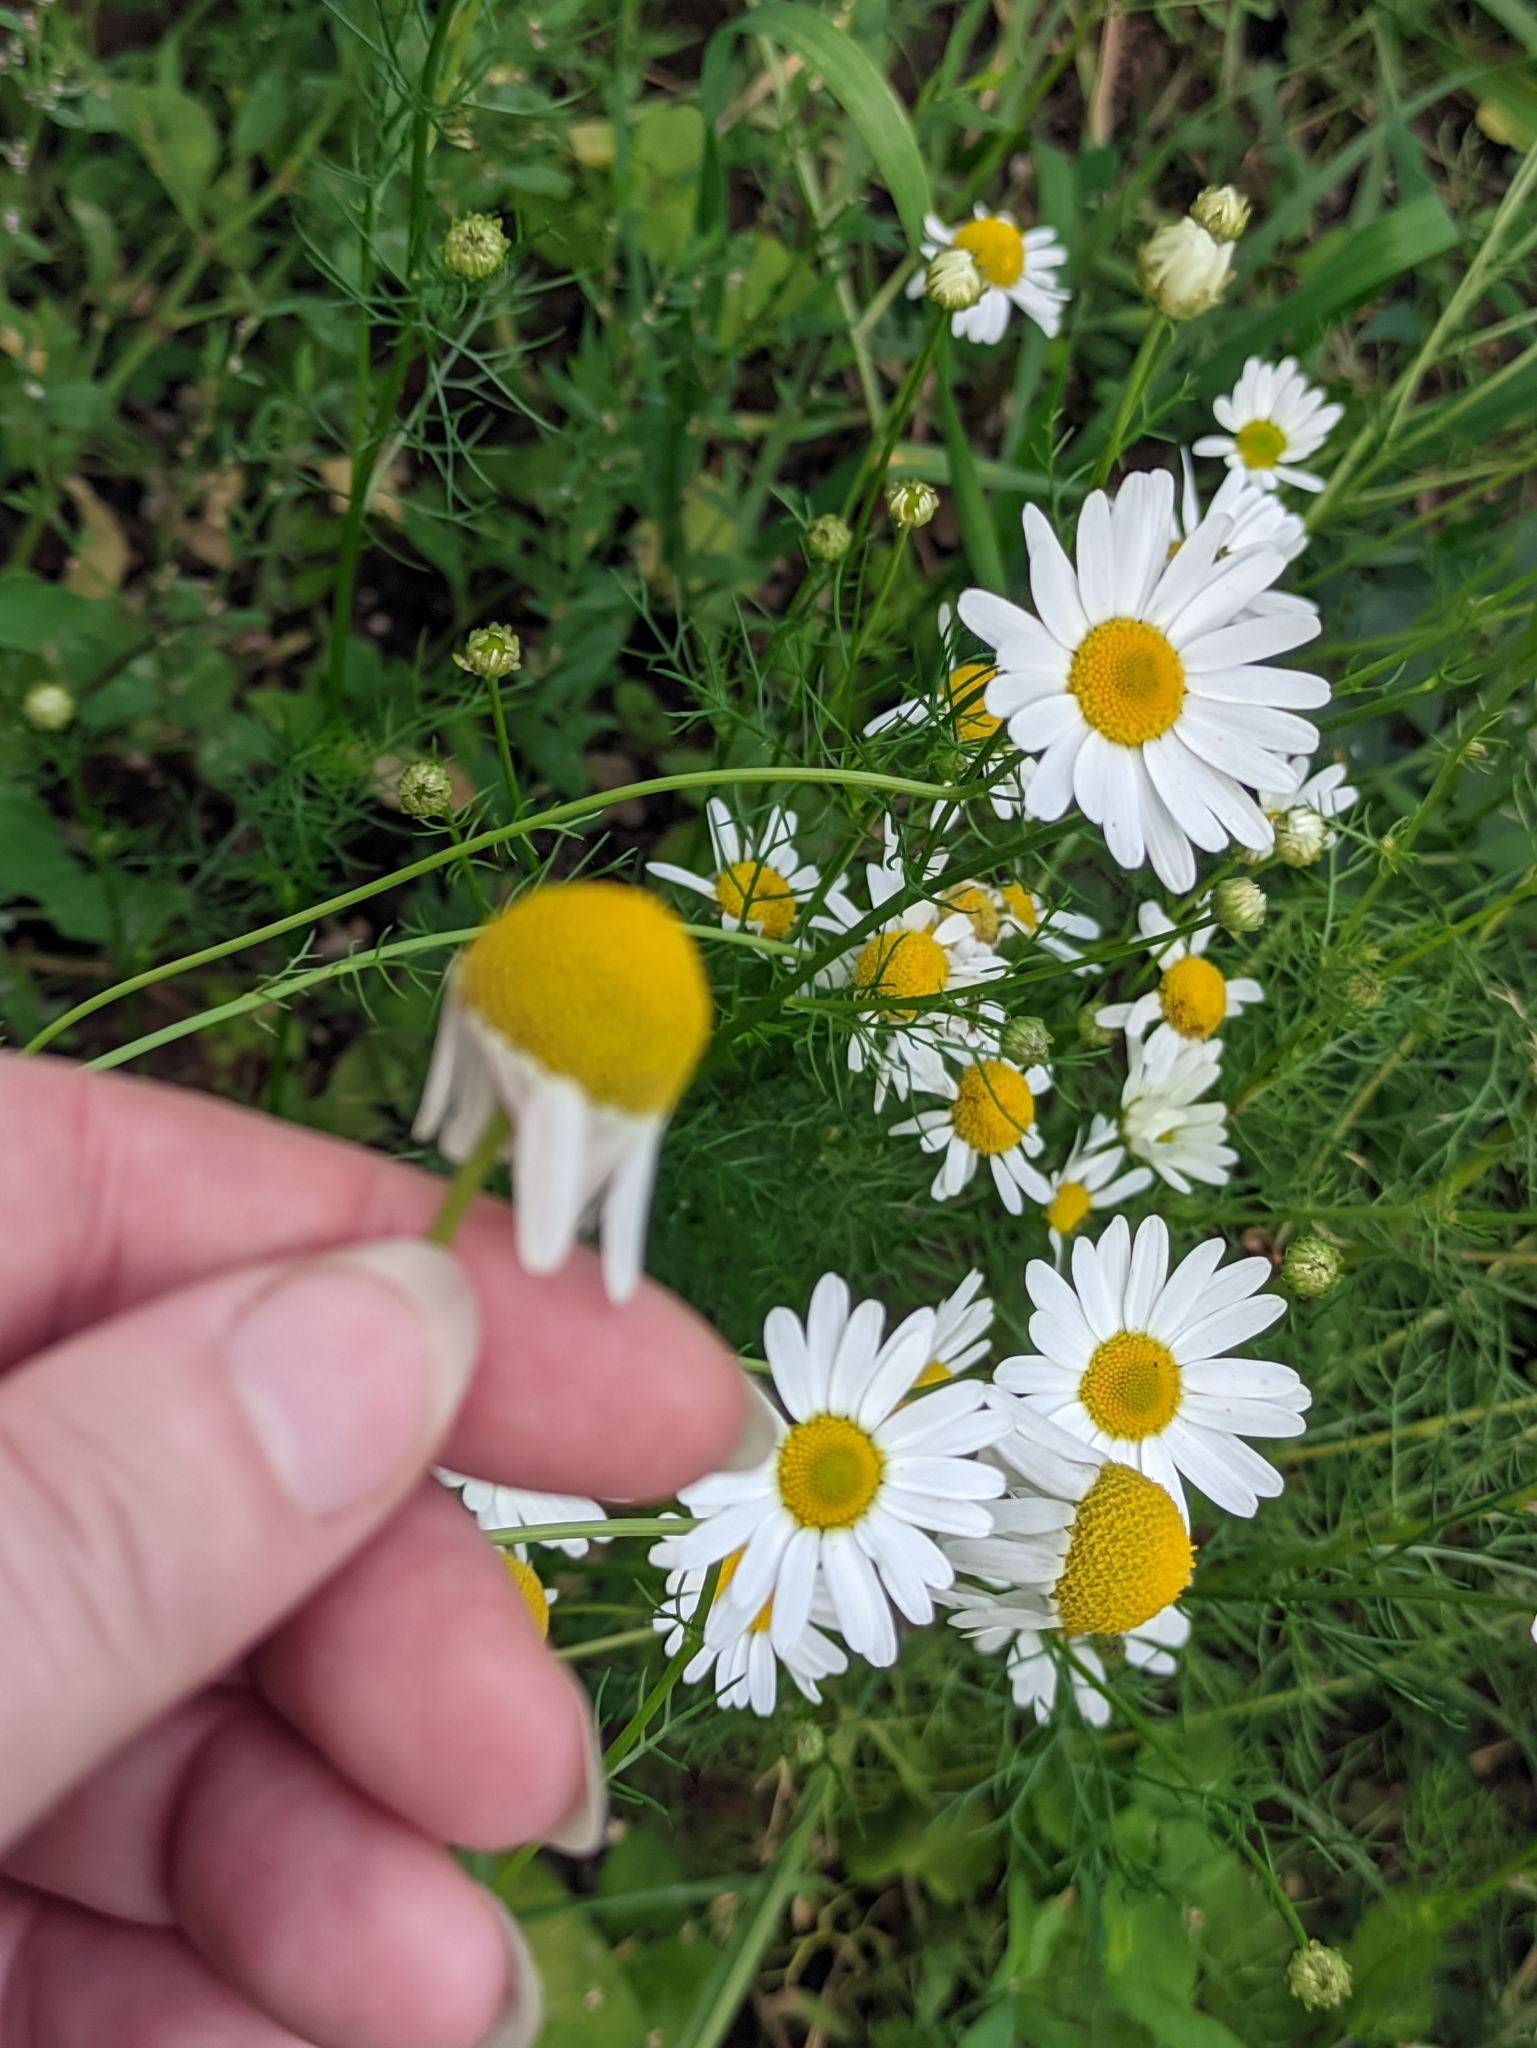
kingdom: Plantae
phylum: Tracheophyta
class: Magnoliopsida
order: Asterales
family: Asteraceae
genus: Tripleurospermum
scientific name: Tripleurospermum inodorum
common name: Scentless mayweed
